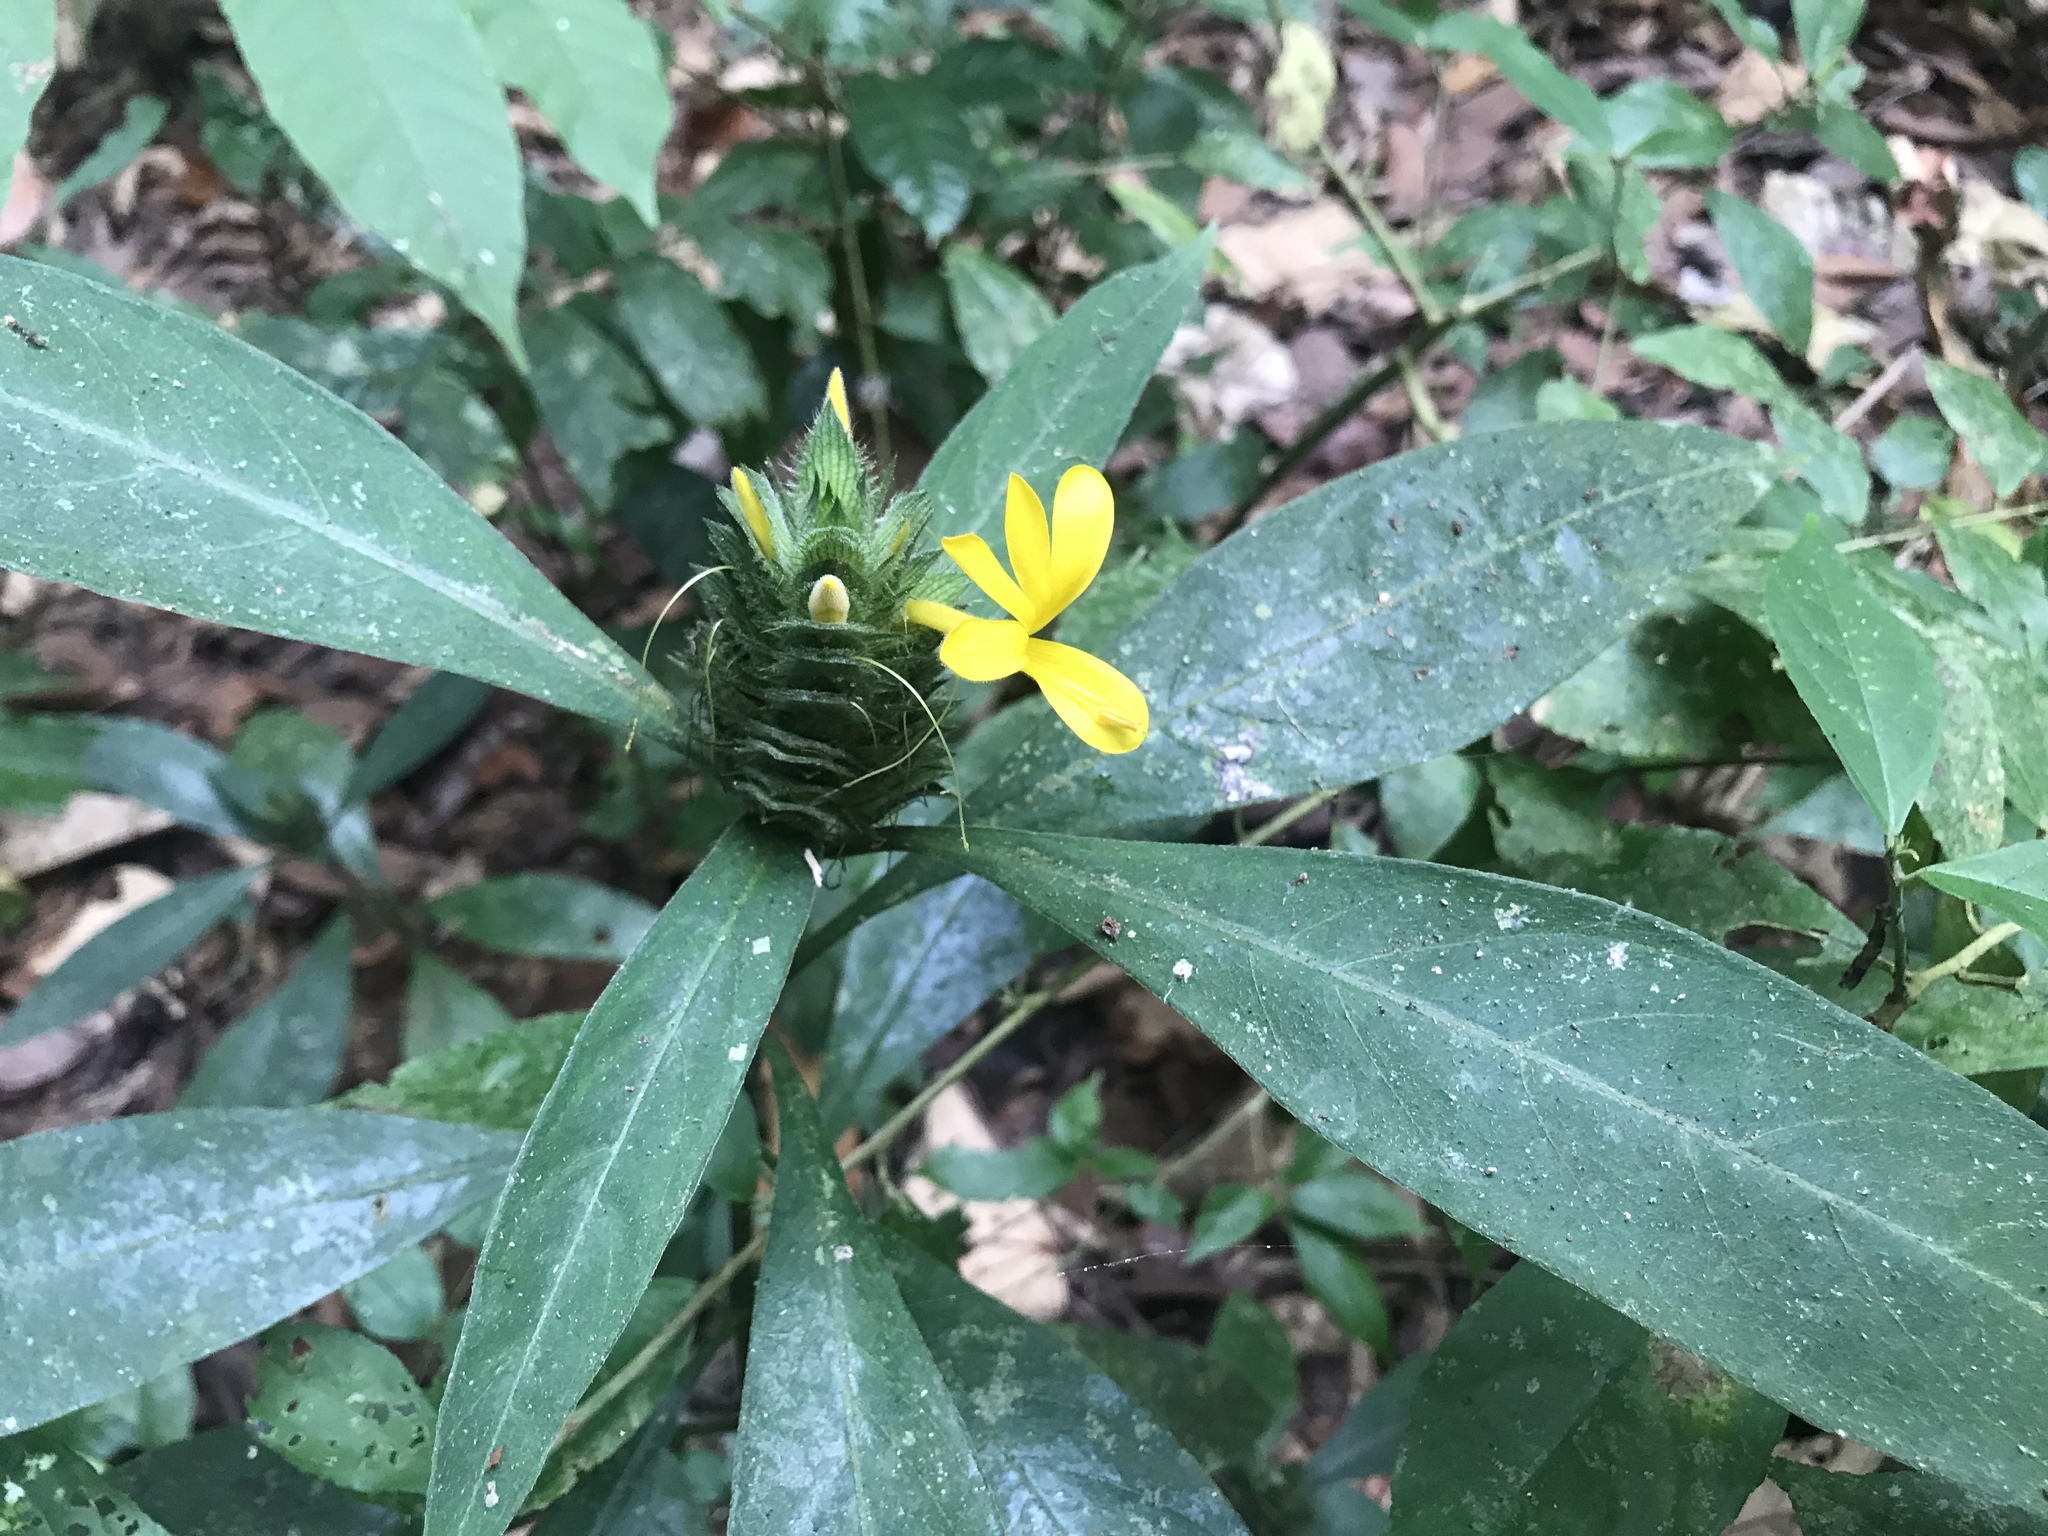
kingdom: Plantae
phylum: Tracheophyta
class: Magnoliopsida
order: Lamiales
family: Acanthaceae
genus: Barleria
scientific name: Barleria oenotheroides
